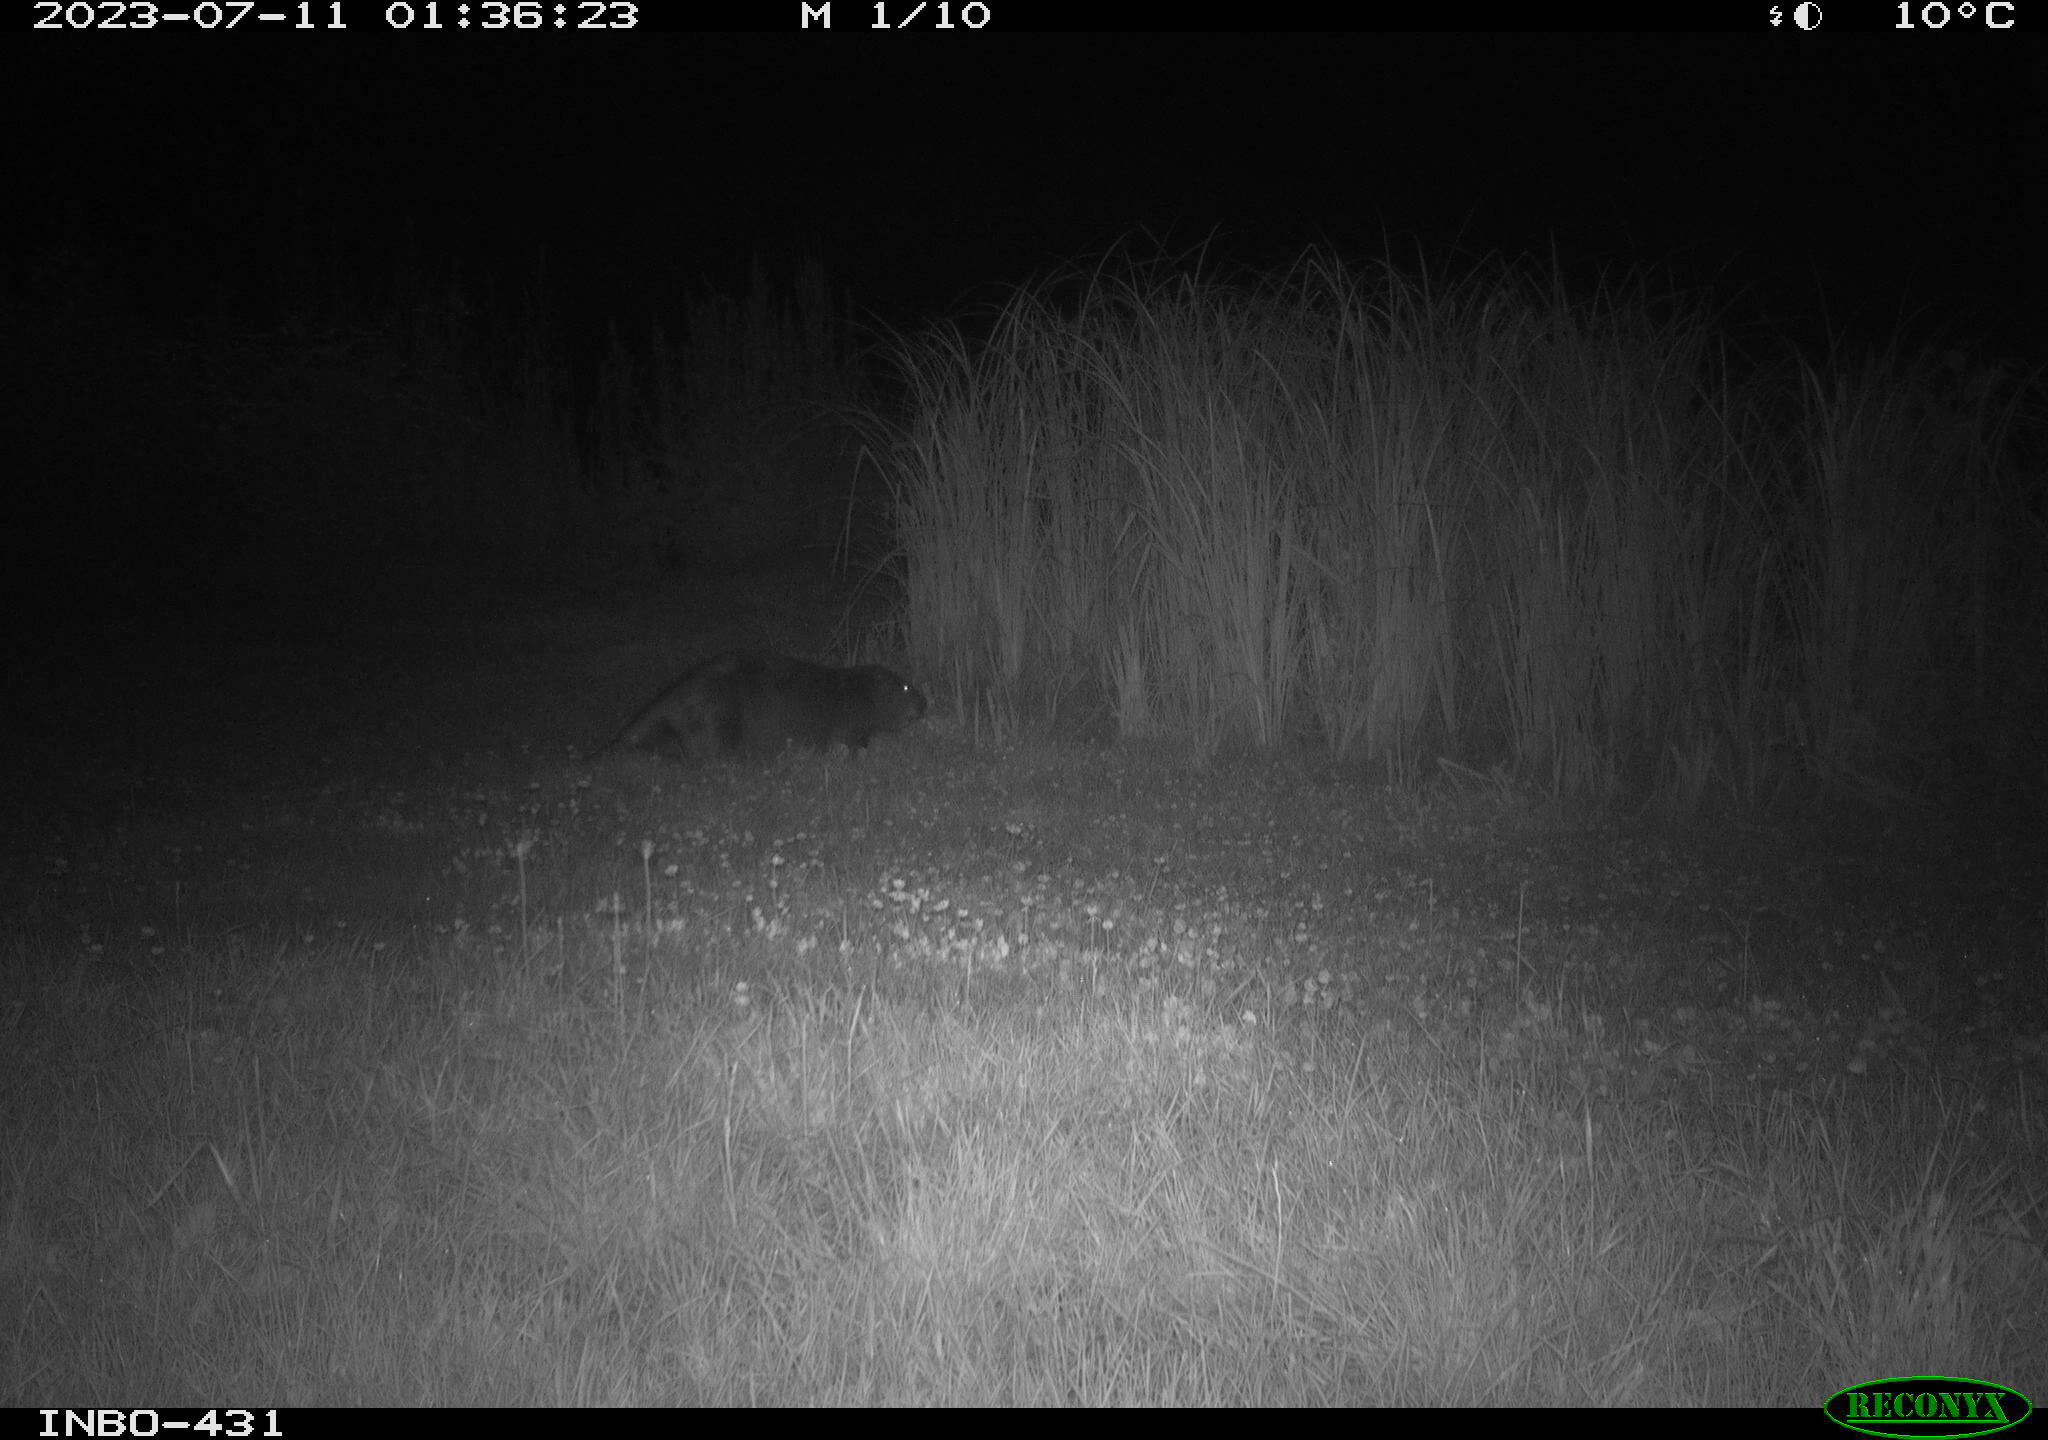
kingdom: Animalia
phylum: Chordata
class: Mammalia
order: Rodentia
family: Castoridae
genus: Castor
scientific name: Castor fiber
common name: Eurasian beaver
